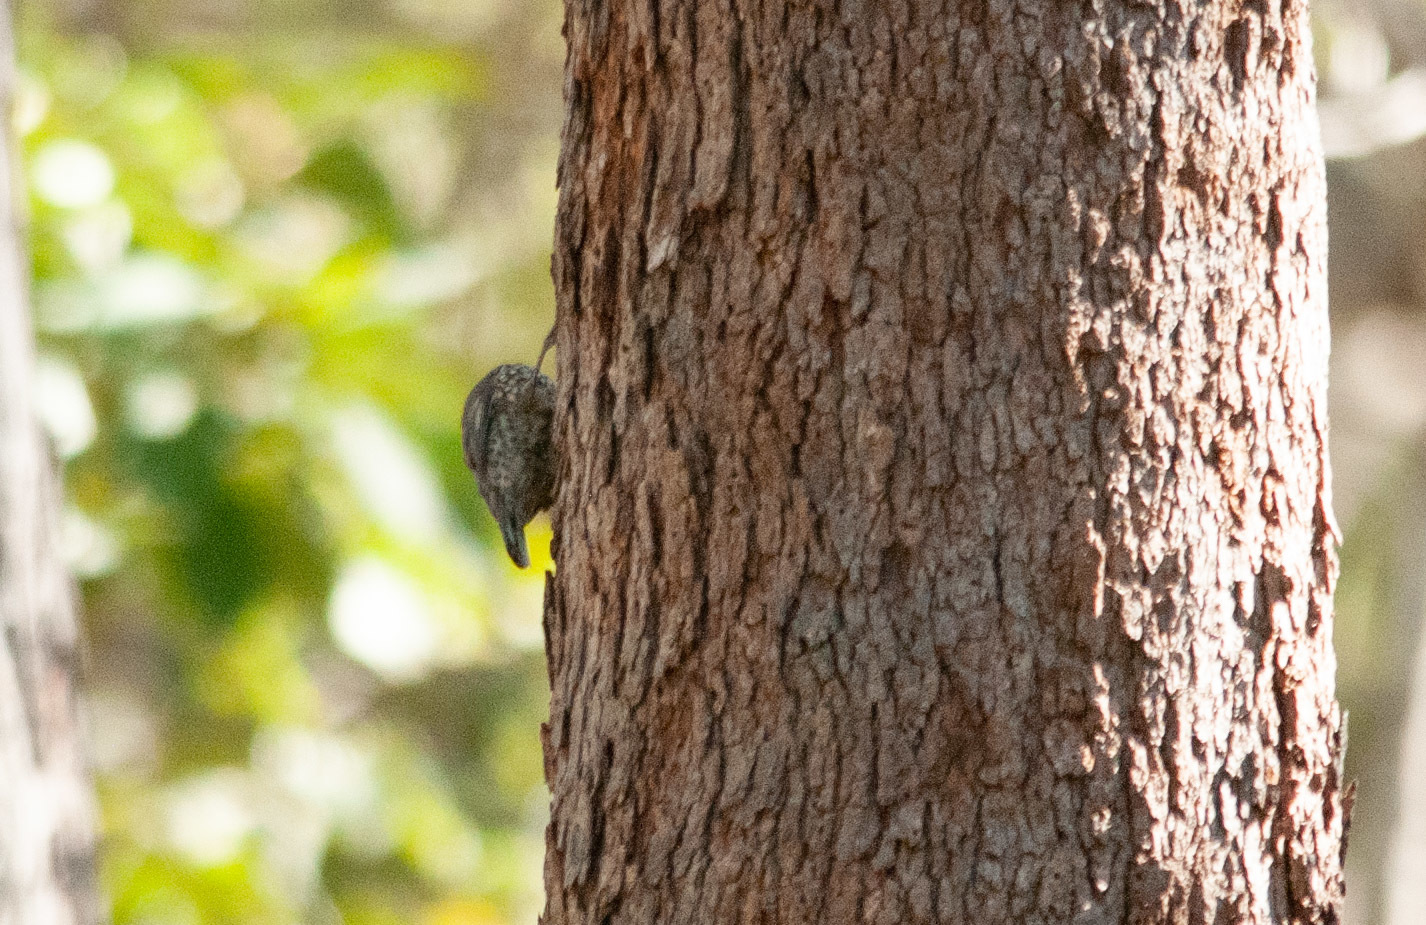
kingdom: Animalia
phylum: Chordata
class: Aves
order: Passeriformes
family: Climacteridae
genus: Cormobates
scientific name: Cormobates leucophaea
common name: White-throated treecreeper
